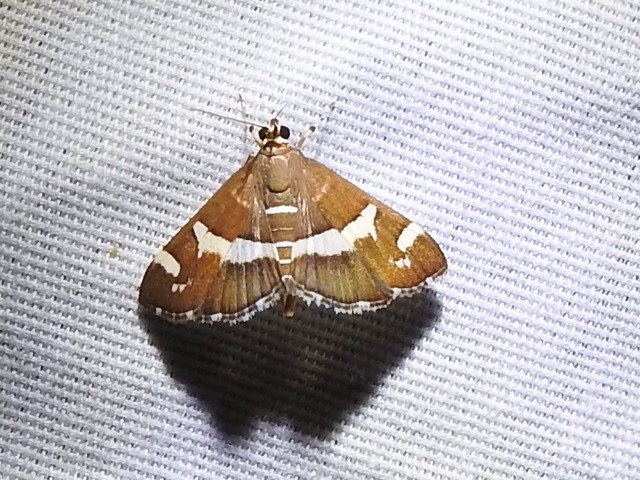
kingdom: Animalia
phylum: Arthropoda
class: Insecta
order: Lepidoptera
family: Crambidae
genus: Spoladea
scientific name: Spoladea recurvalis
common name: Beet webworm moth
